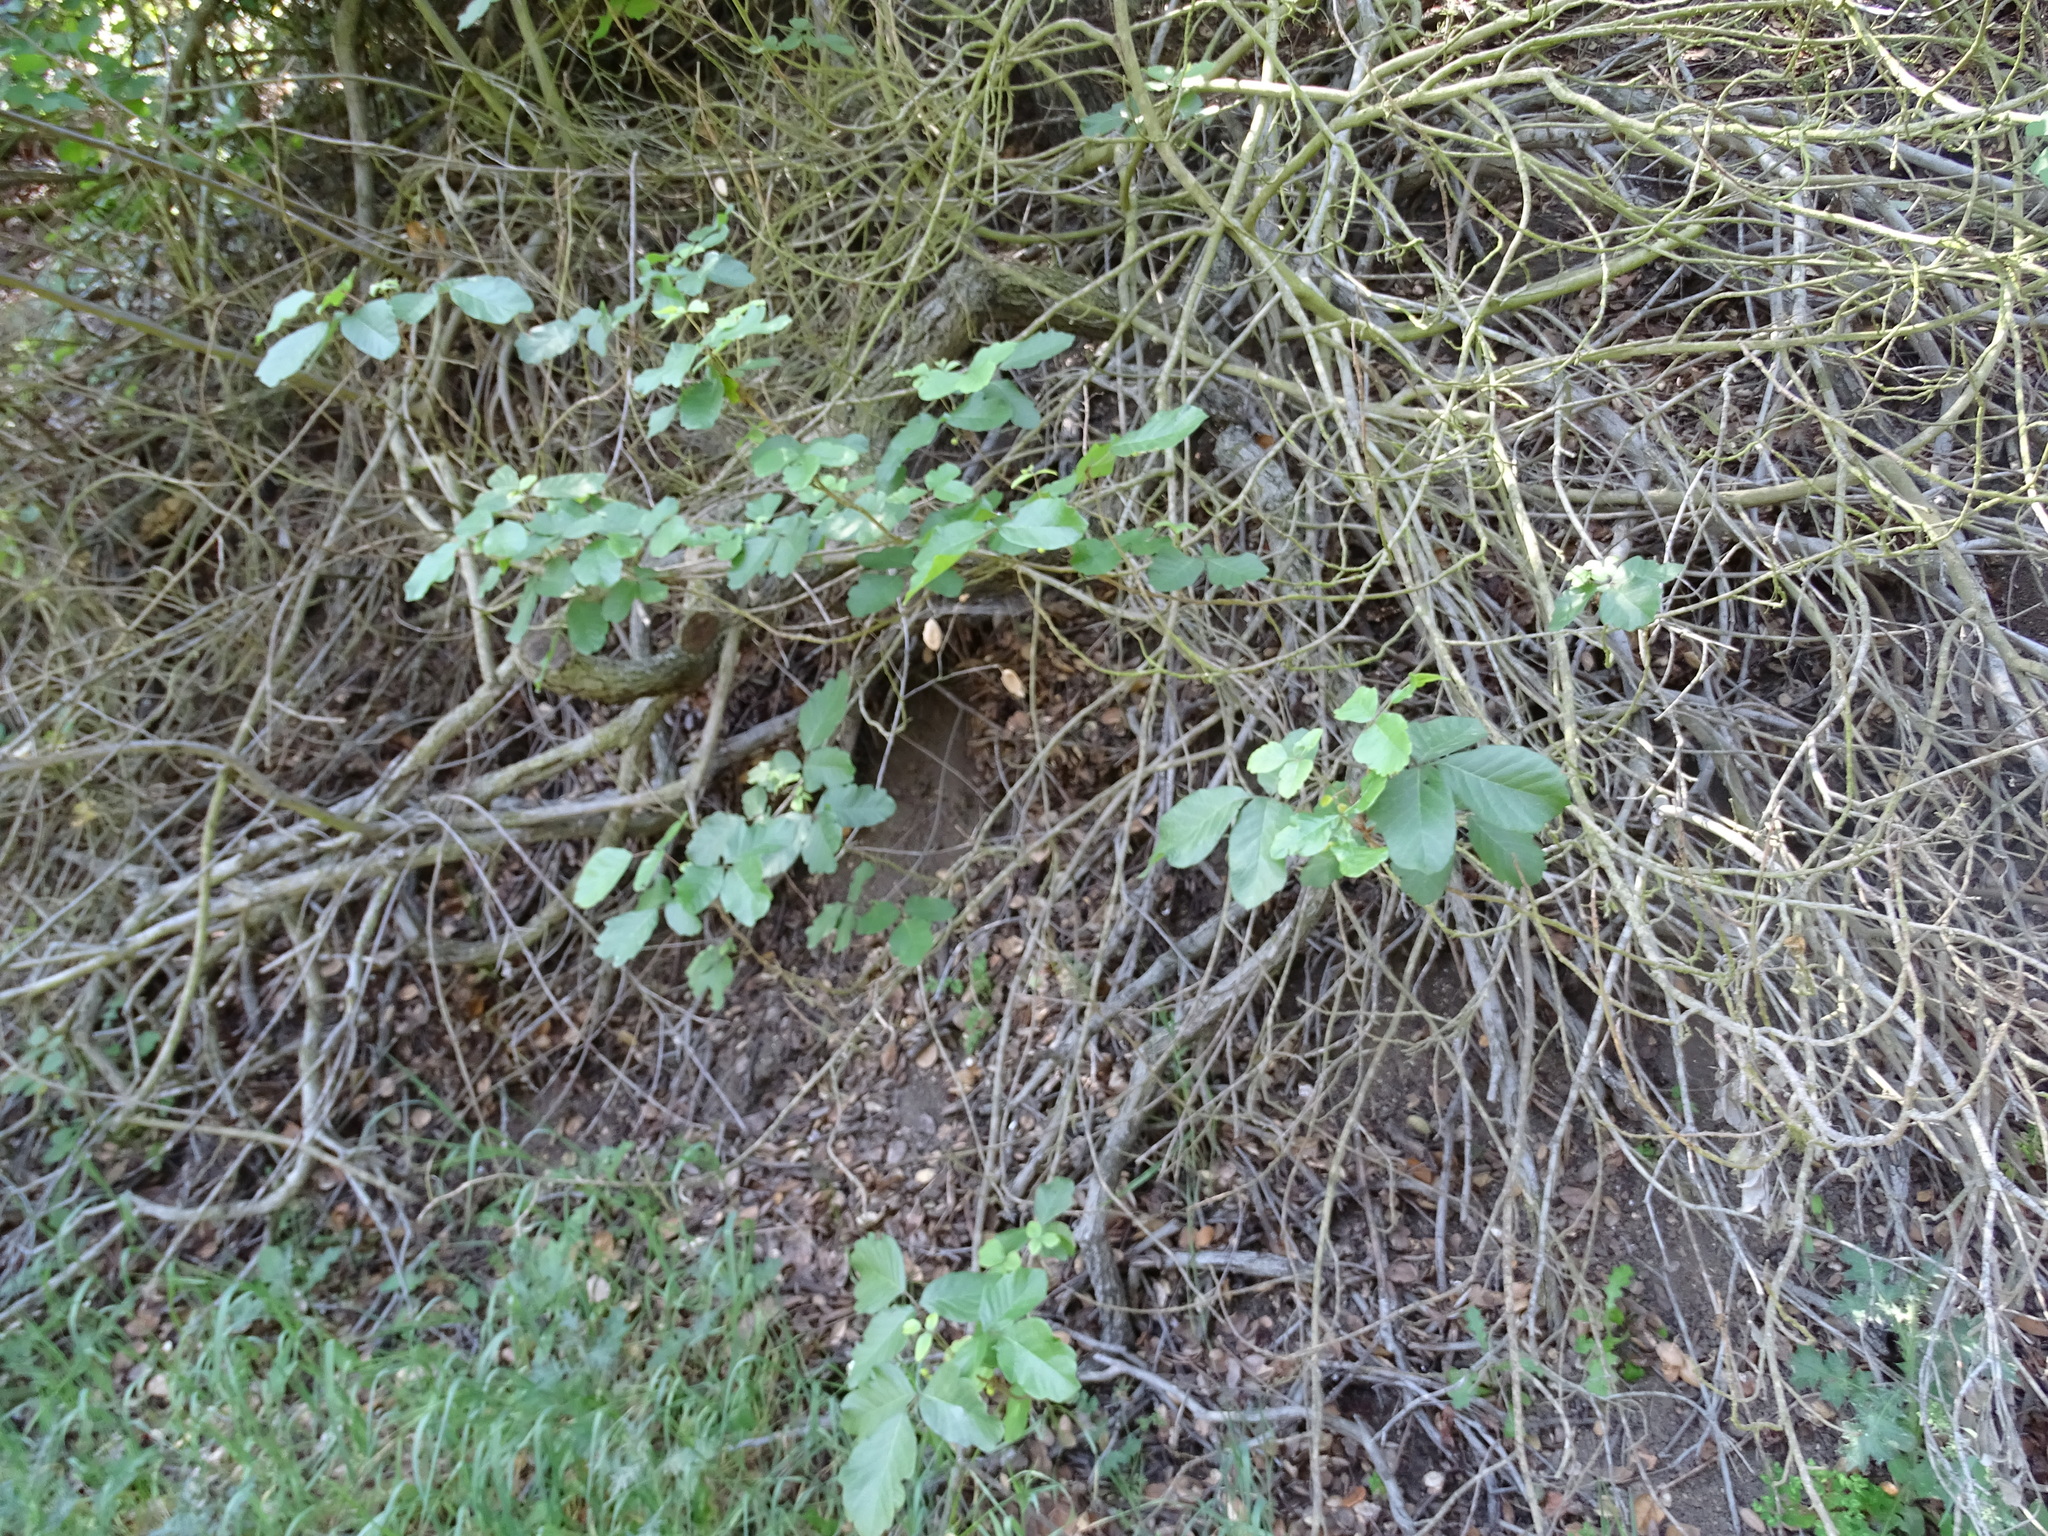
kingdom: Plantae
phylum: Tracheophyta
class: Magnoliopsida
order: Sapindales
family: Anacardiaceae
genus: Toxicodendron
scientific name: Toxicodendron diversilobum
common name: Pacific poison-oak
